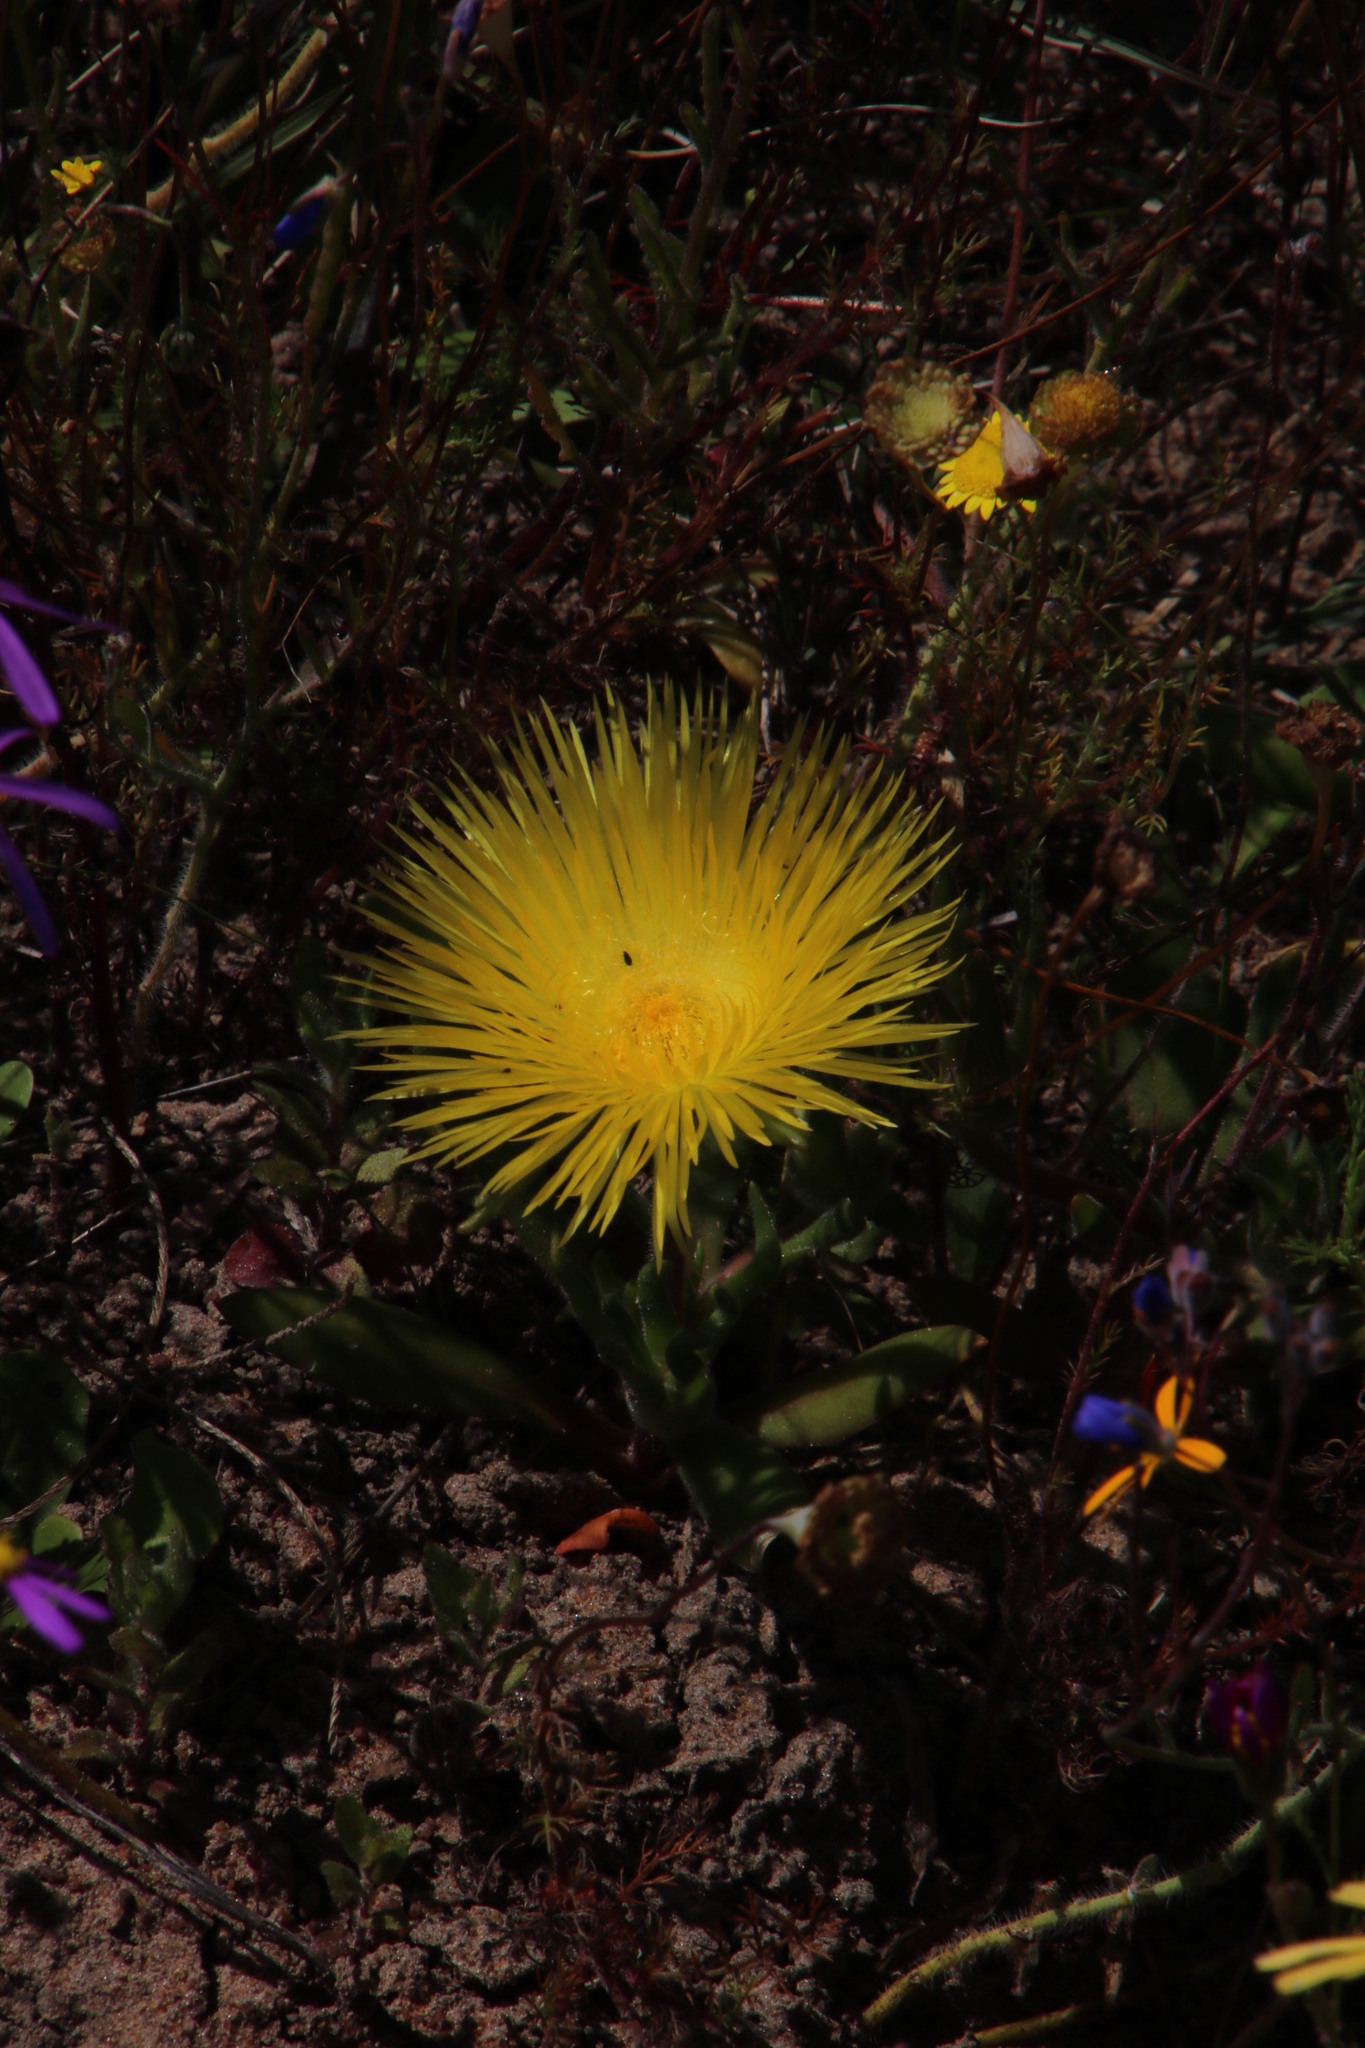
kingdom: Plantae
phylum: Tracheophyta
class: Magnoliopsida
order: Caryophyllales
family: Aizoaceae
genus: Carpanthea
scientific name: Carpanthea pomeridiana
